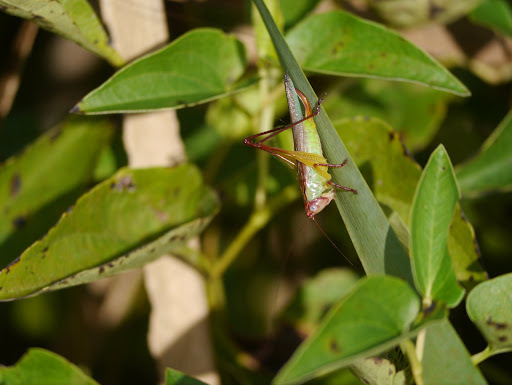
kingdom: Animalia
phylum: Arthropoda
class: Insecta
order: Orthoptera
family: Tettigoniidae
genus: Orchelimum
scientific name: Orchelimum pulchellum
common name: Handsome meadow katydid
